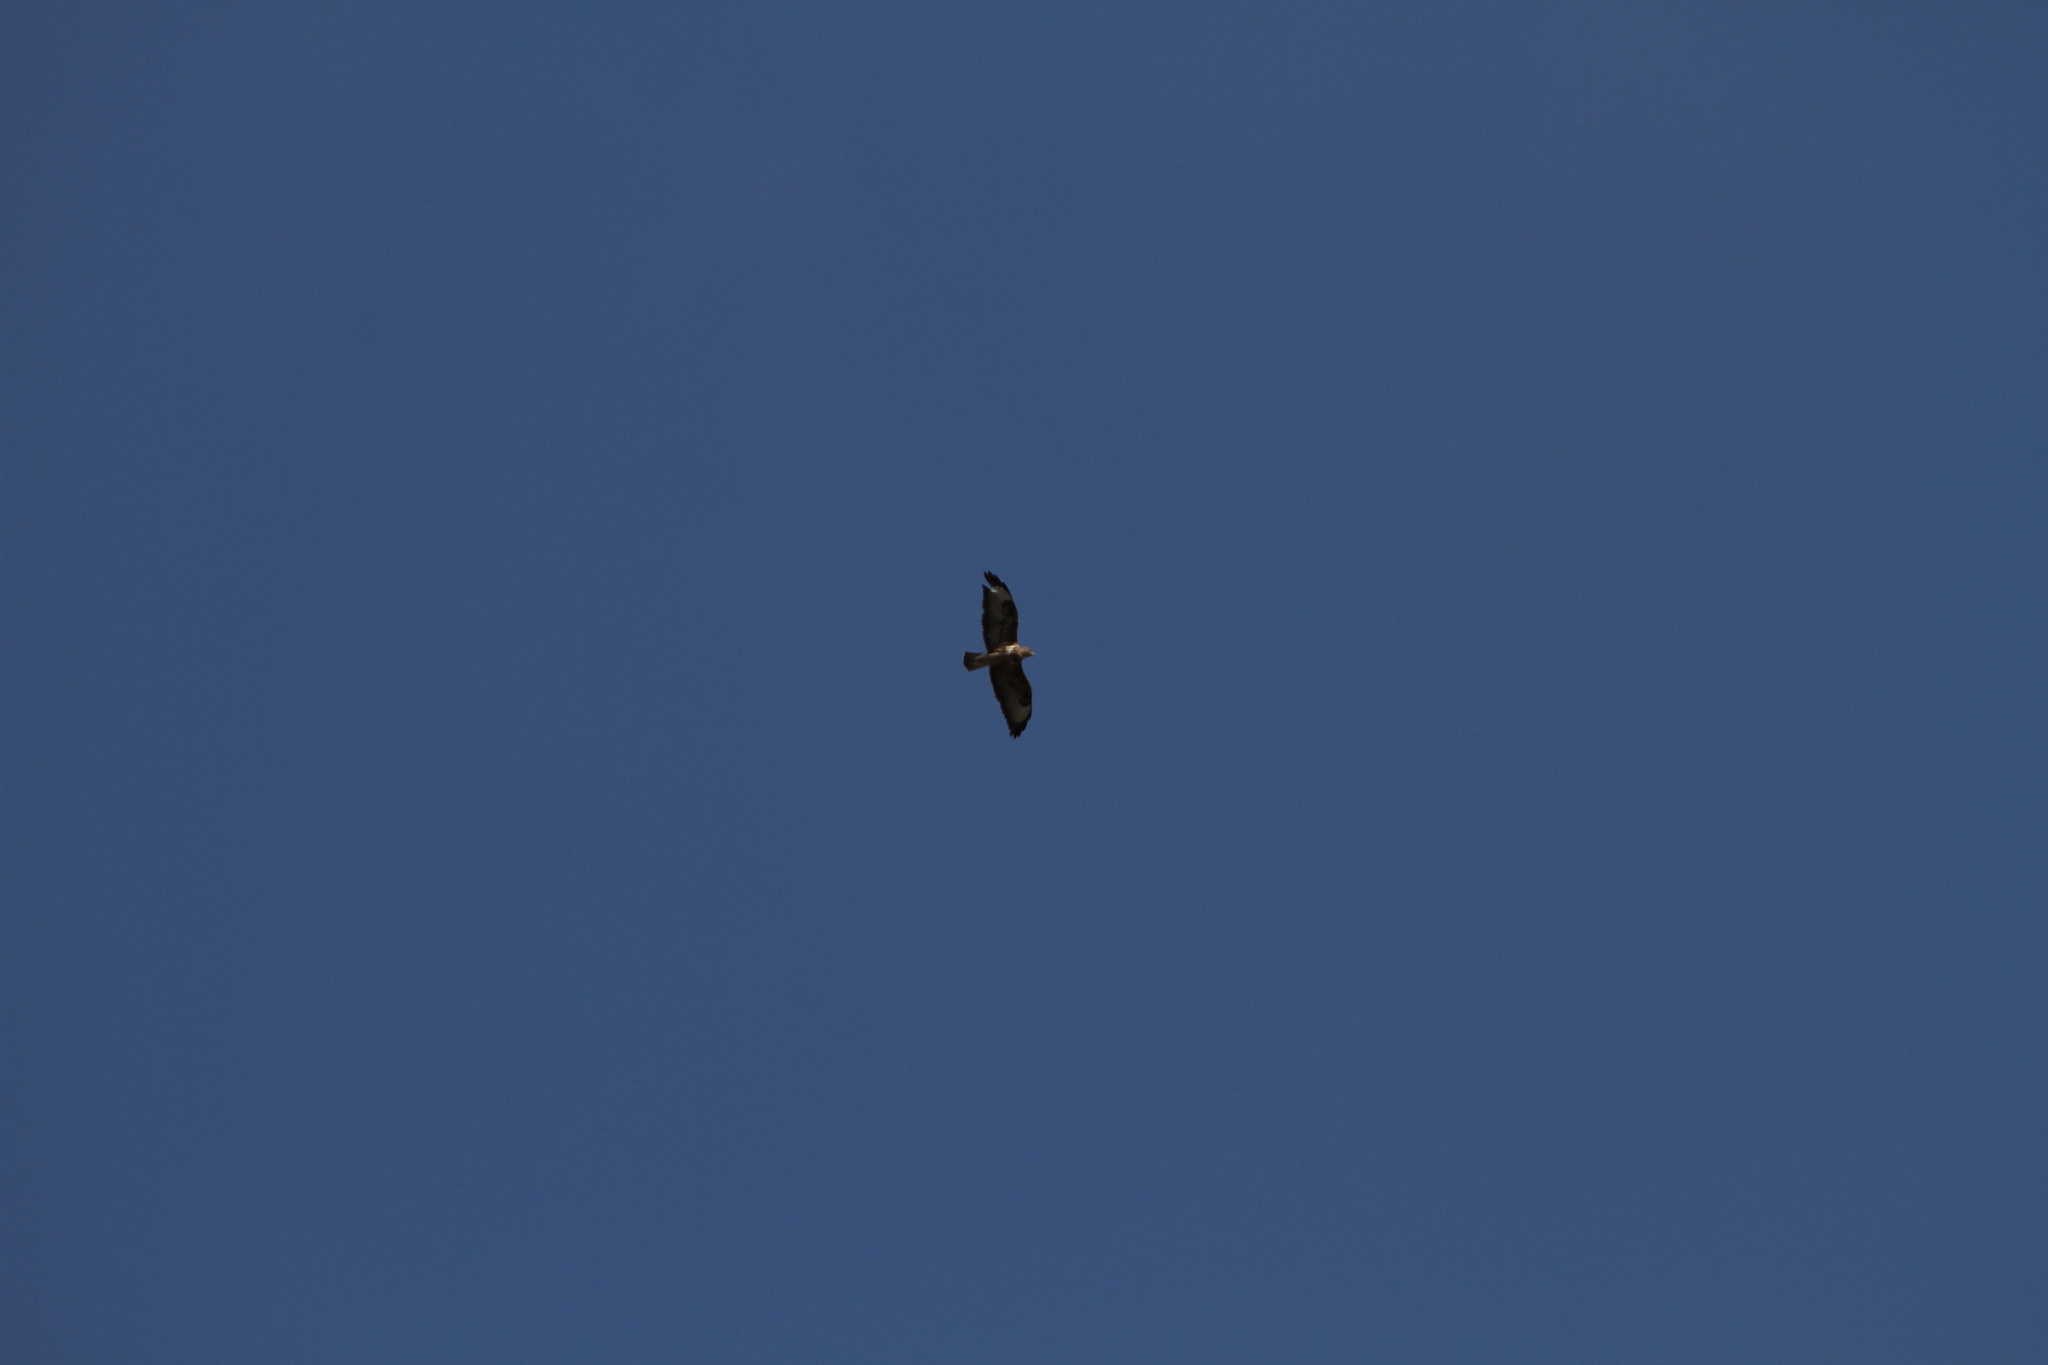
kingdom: Animalia
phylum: Chordata
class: Aves
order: Accipitriformes
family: Accipitridae
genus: Buteo
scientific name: Buteo buteo
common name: Common buzzard
